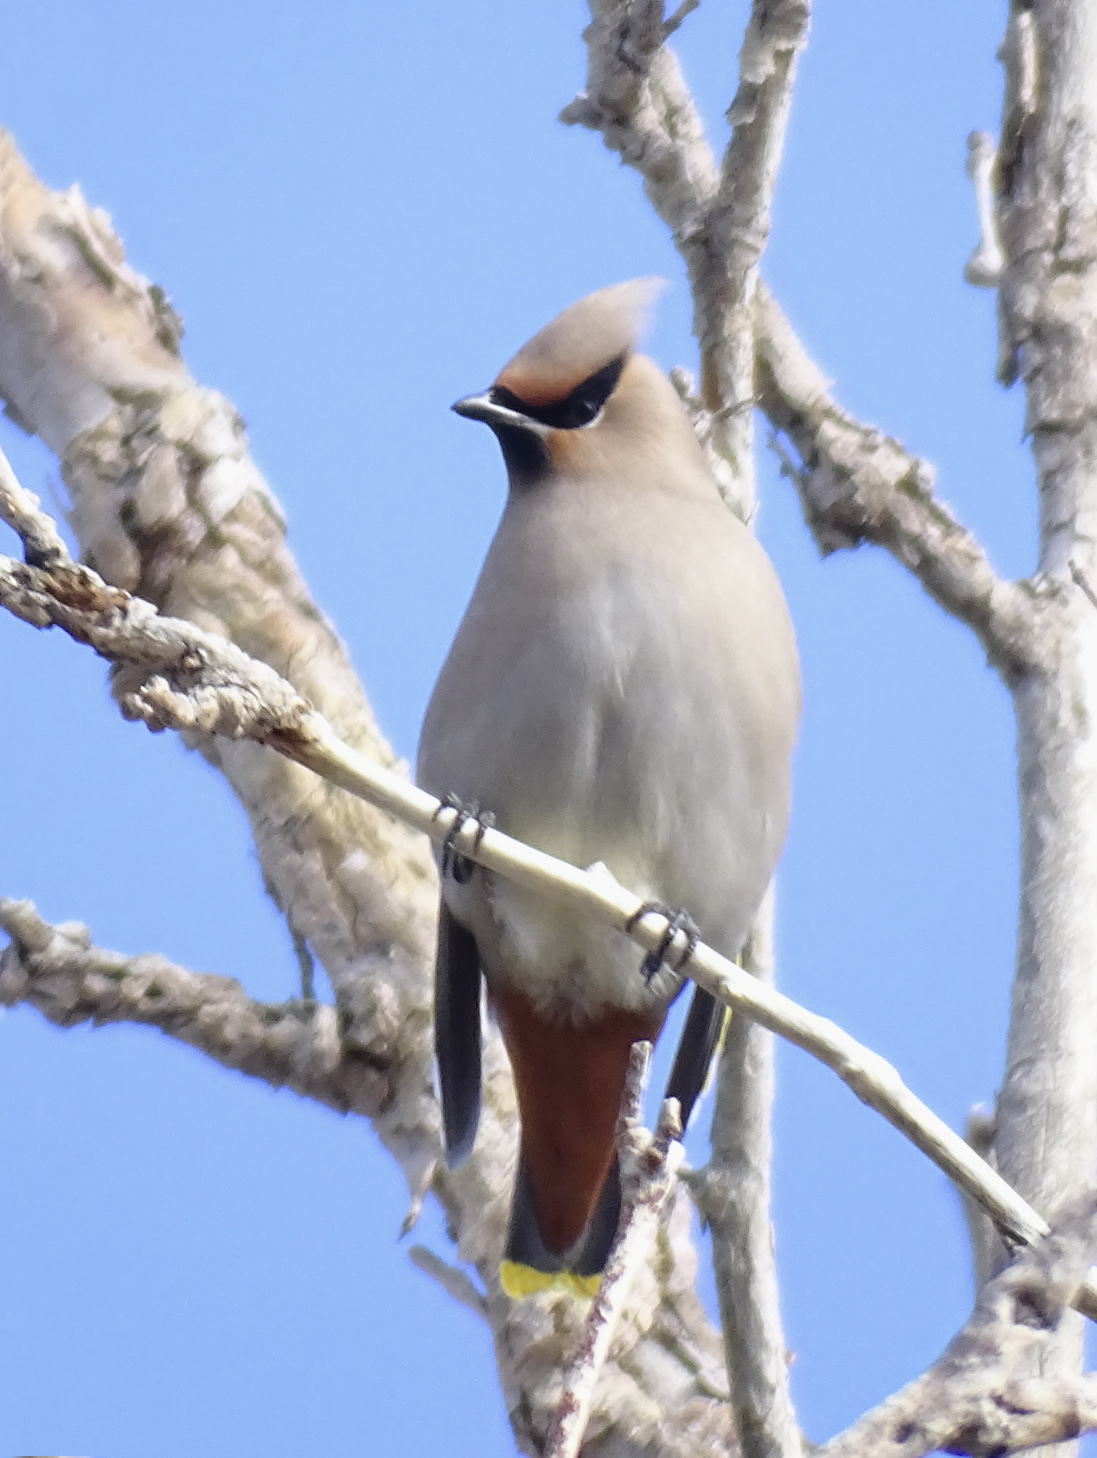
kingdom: Animalia
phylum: Chordata
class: Aves
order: Passeriformes
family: Bombycillidae
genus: Bombycilla
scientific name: Bombycilla garrulus
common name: Bohemian waxwing
